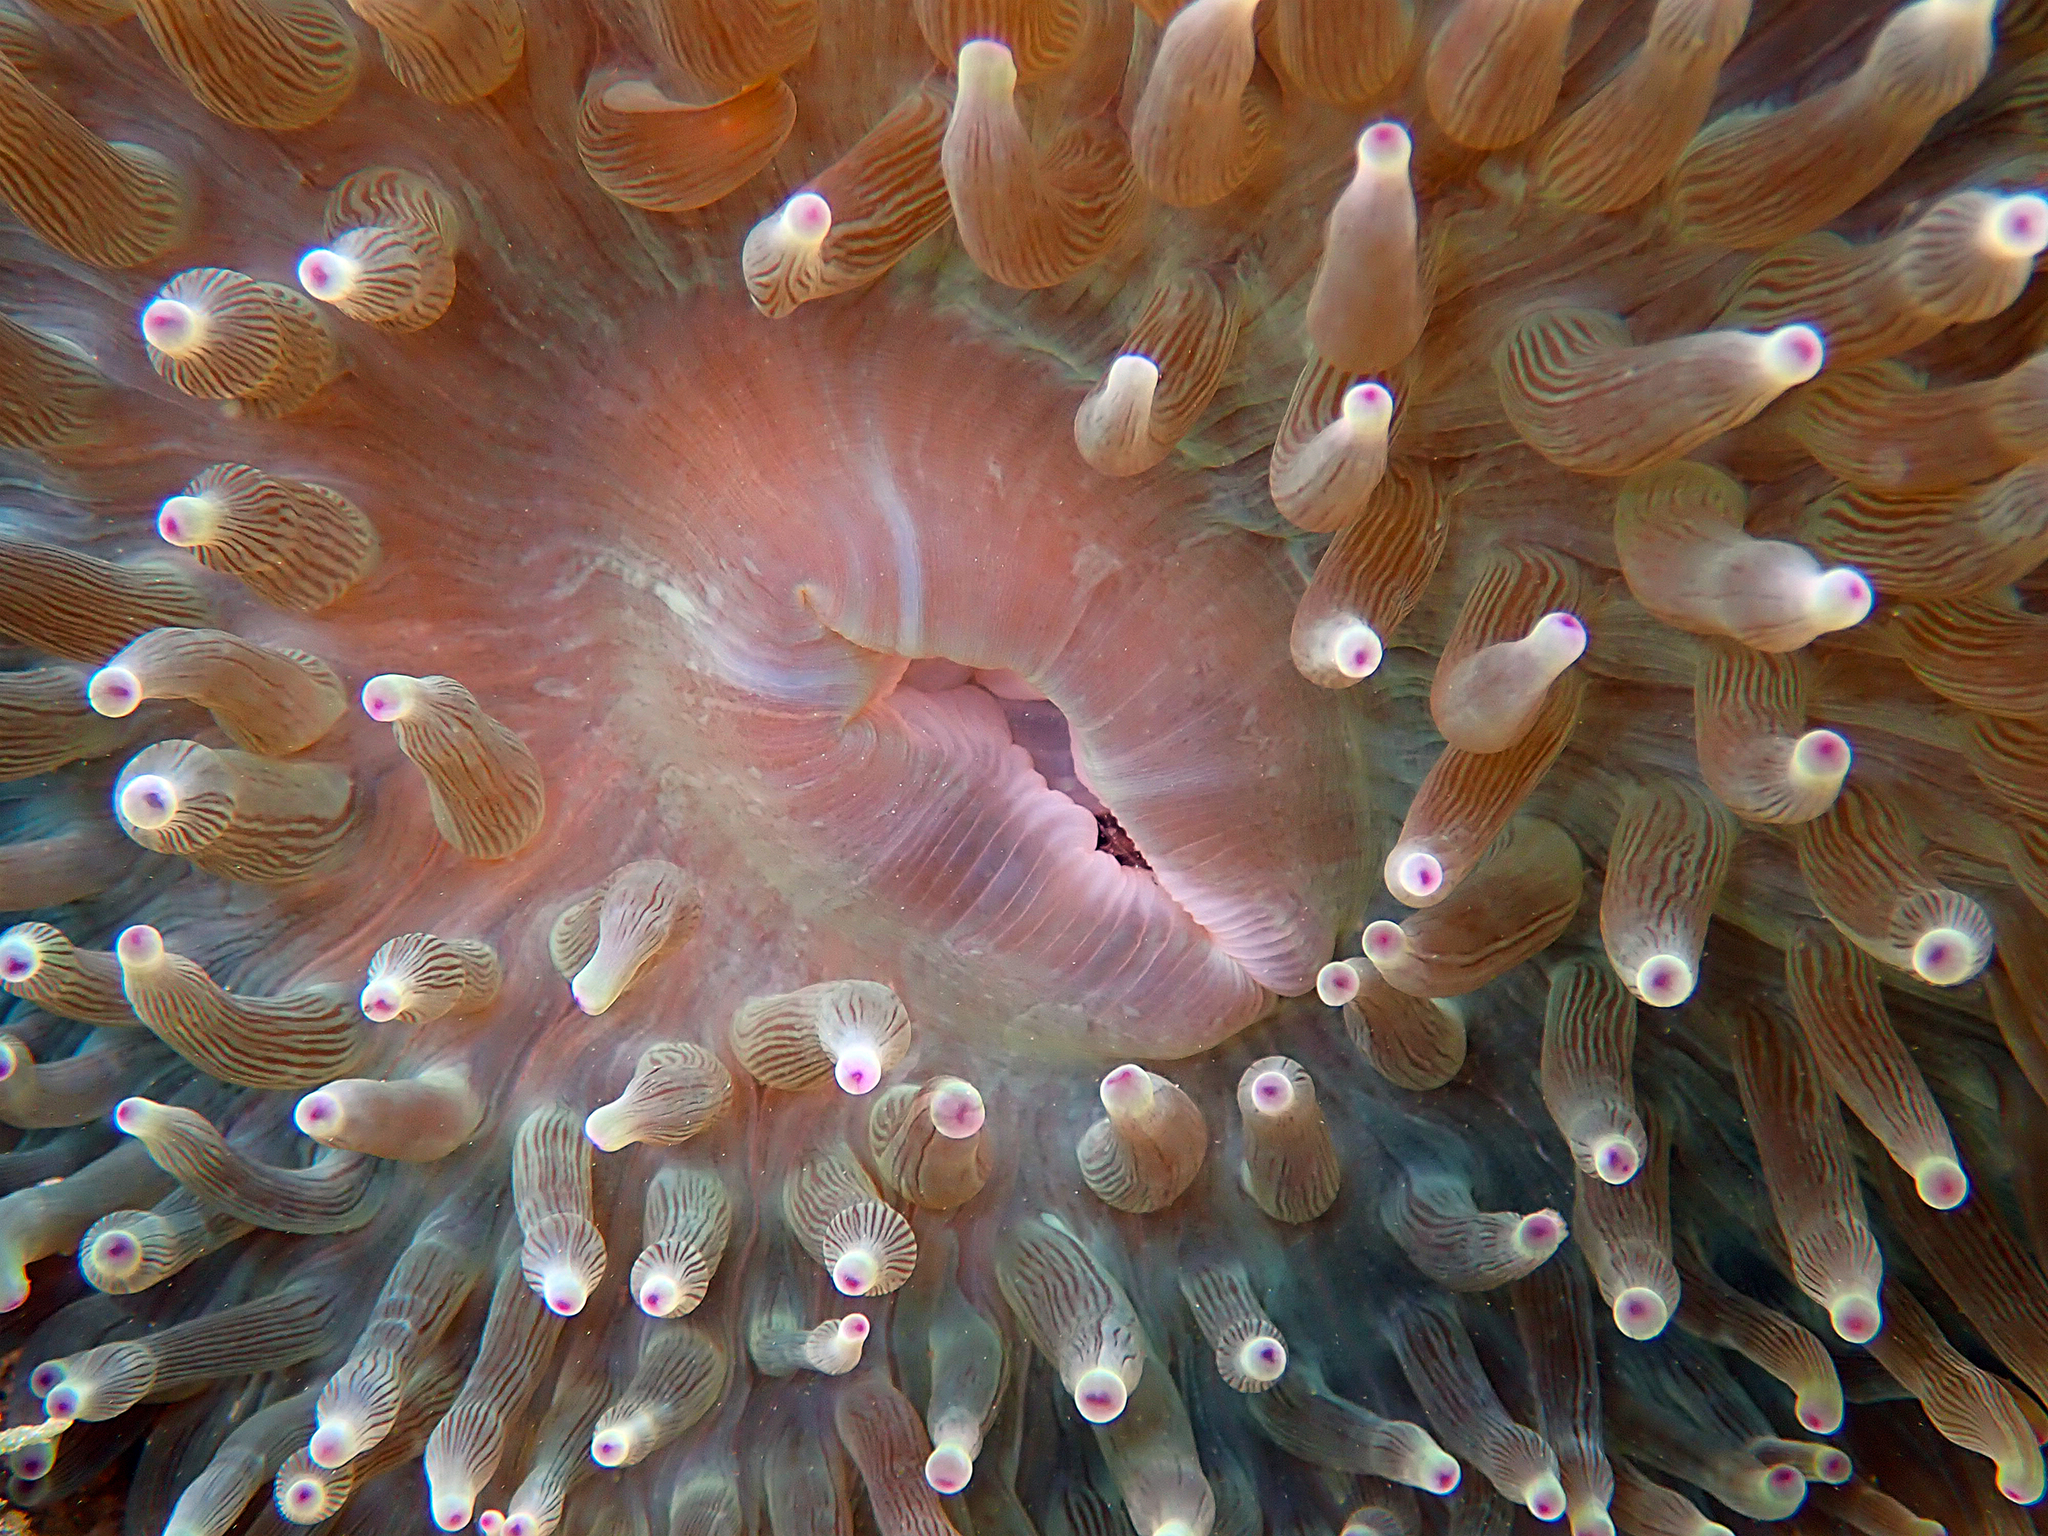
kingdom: Animalia
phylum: Cnidaria
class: Anthozoa
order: Actiniaria
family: Actiniidae
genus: Entacmaea
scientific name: Entacmaea quadricolor
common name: Bulb tentacle sea anemone
